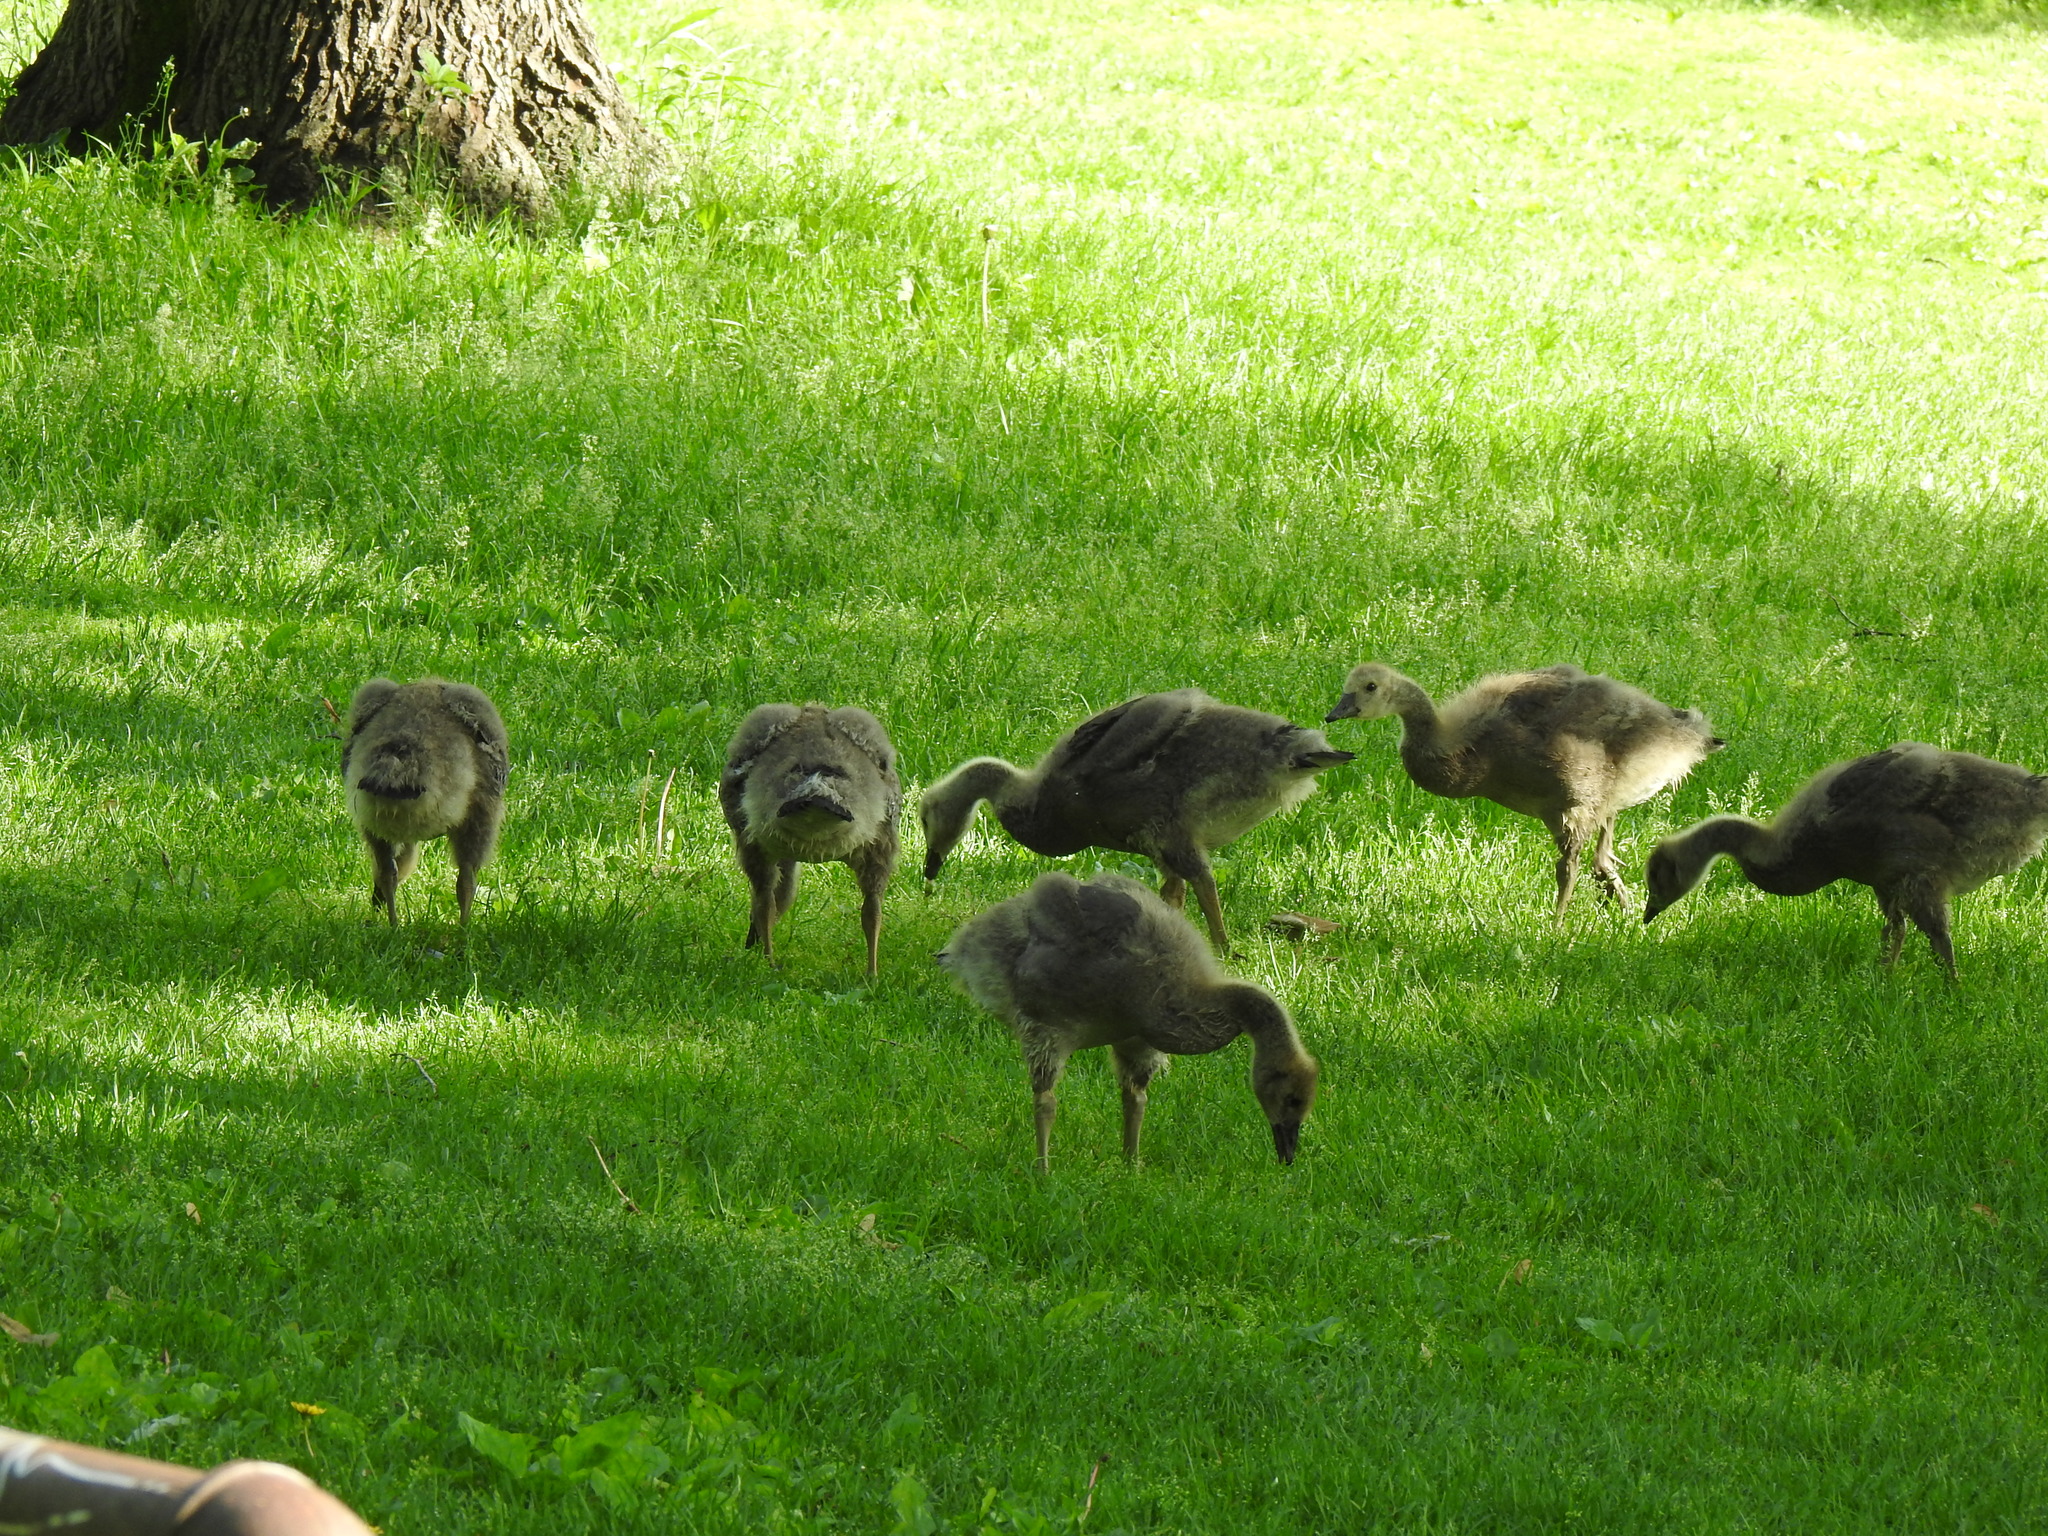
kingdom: Animalia
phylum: Chordata
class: Aves
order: Anseriformes
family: Anatidae
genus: Branta
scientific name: Branta canadensis
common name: Canada goose
